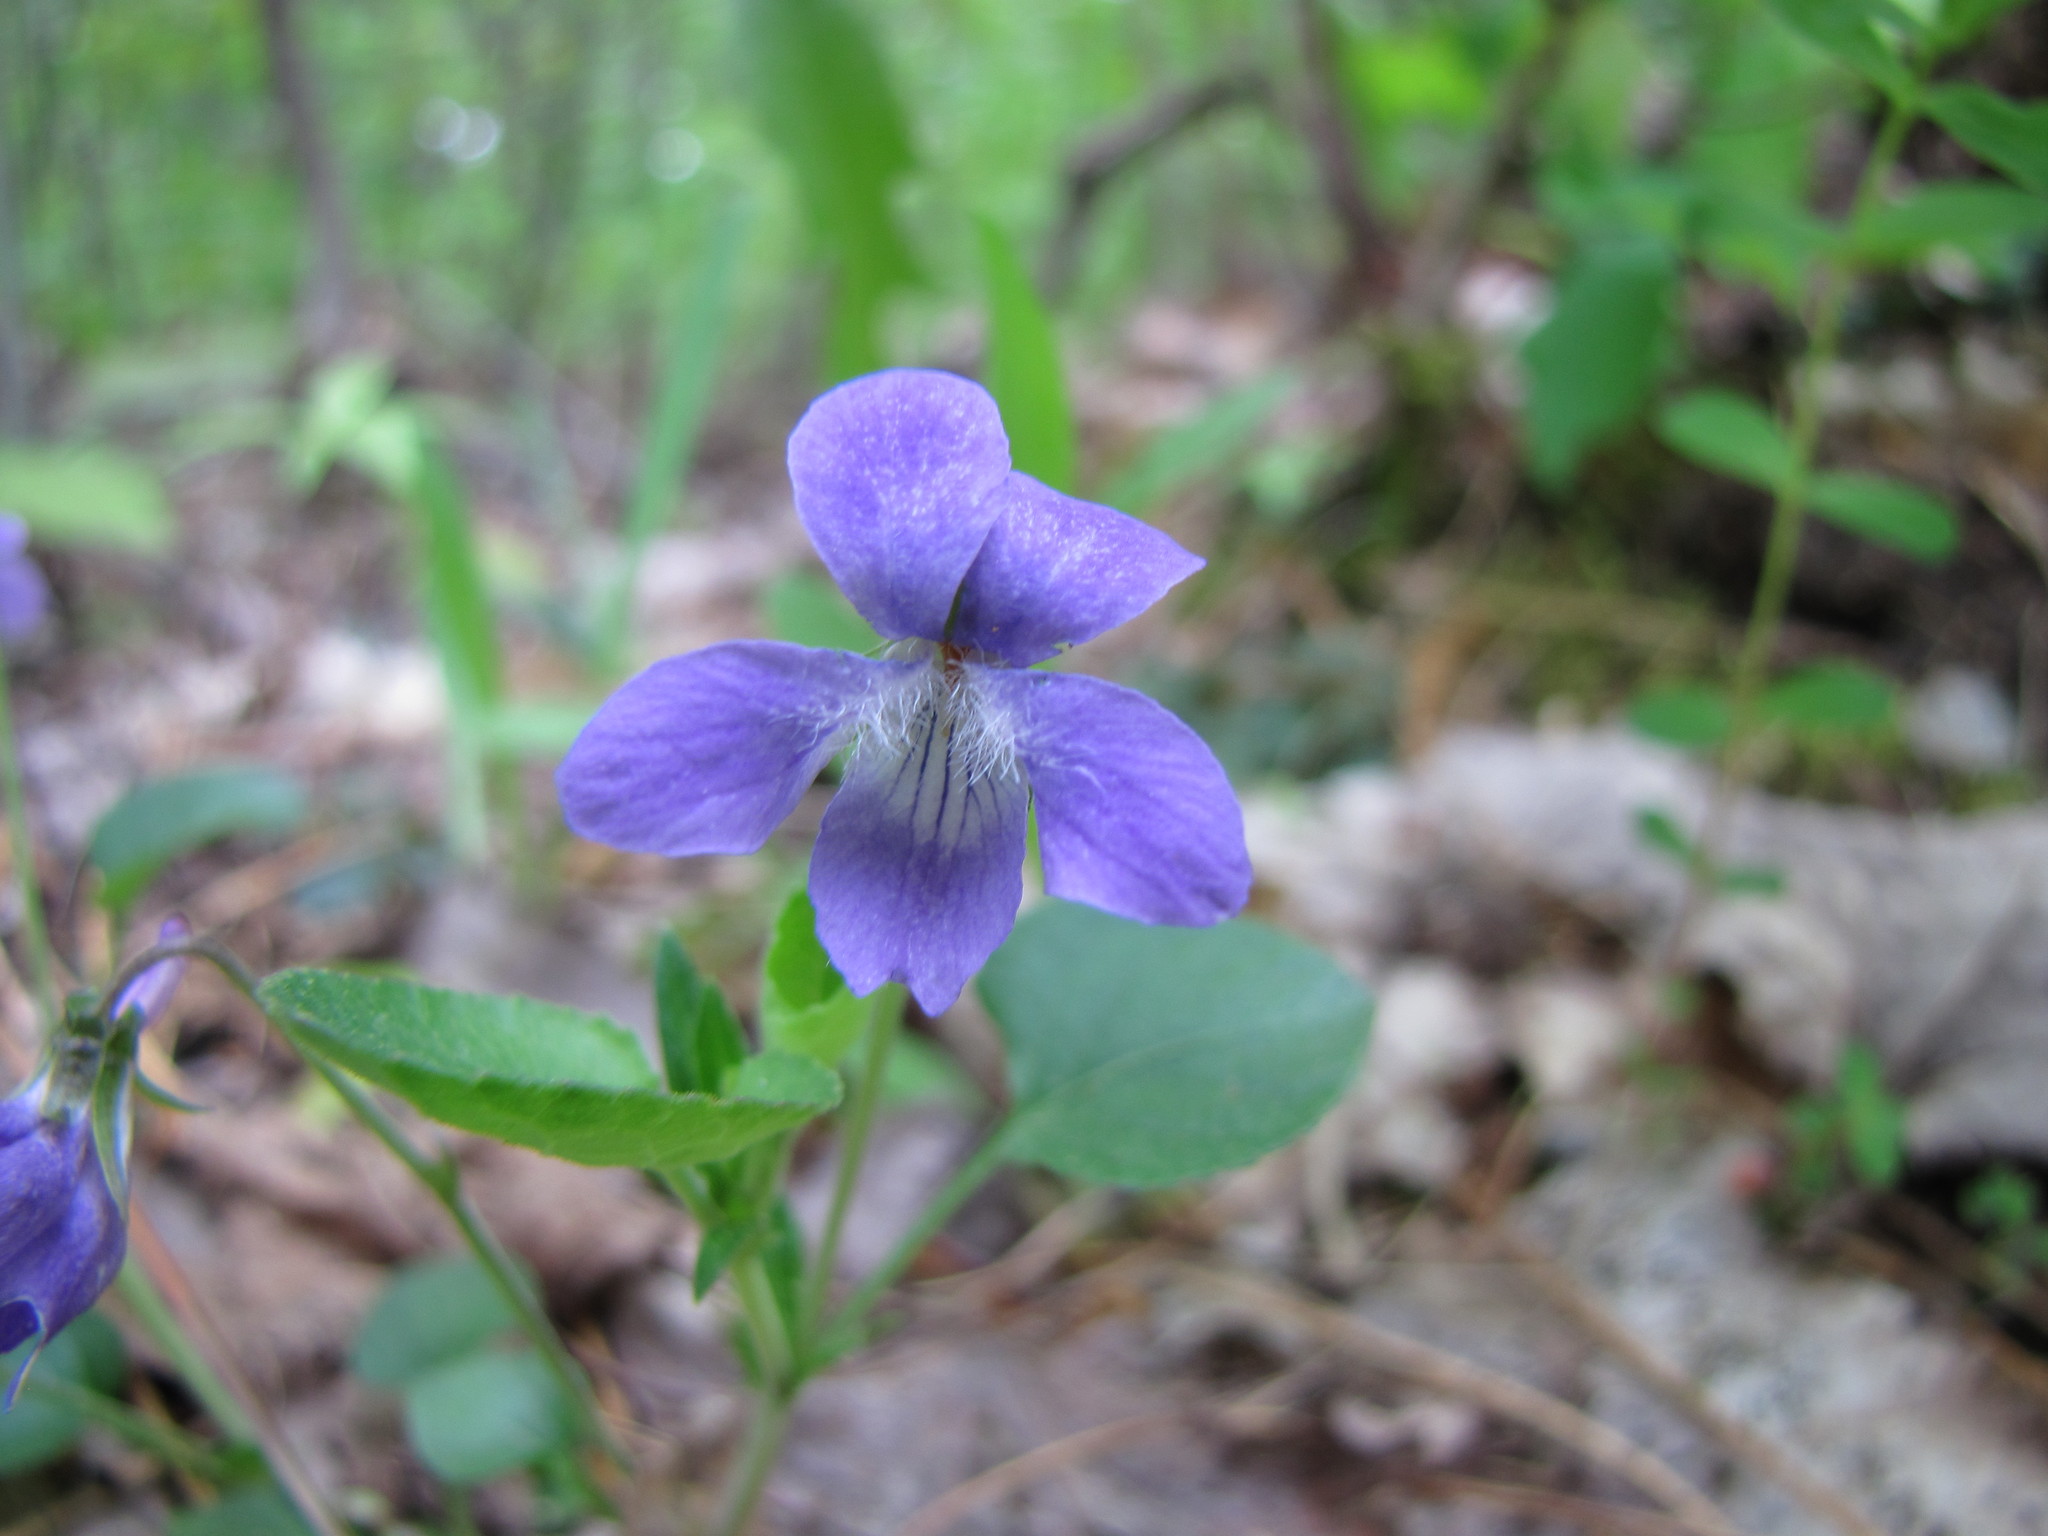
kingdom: Plantae
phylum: Tracheophyta
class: Magnoliopsida
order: Malpighiales
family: Violaceae
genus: Viola
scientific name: Viola sororia
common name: Dooryard violet
